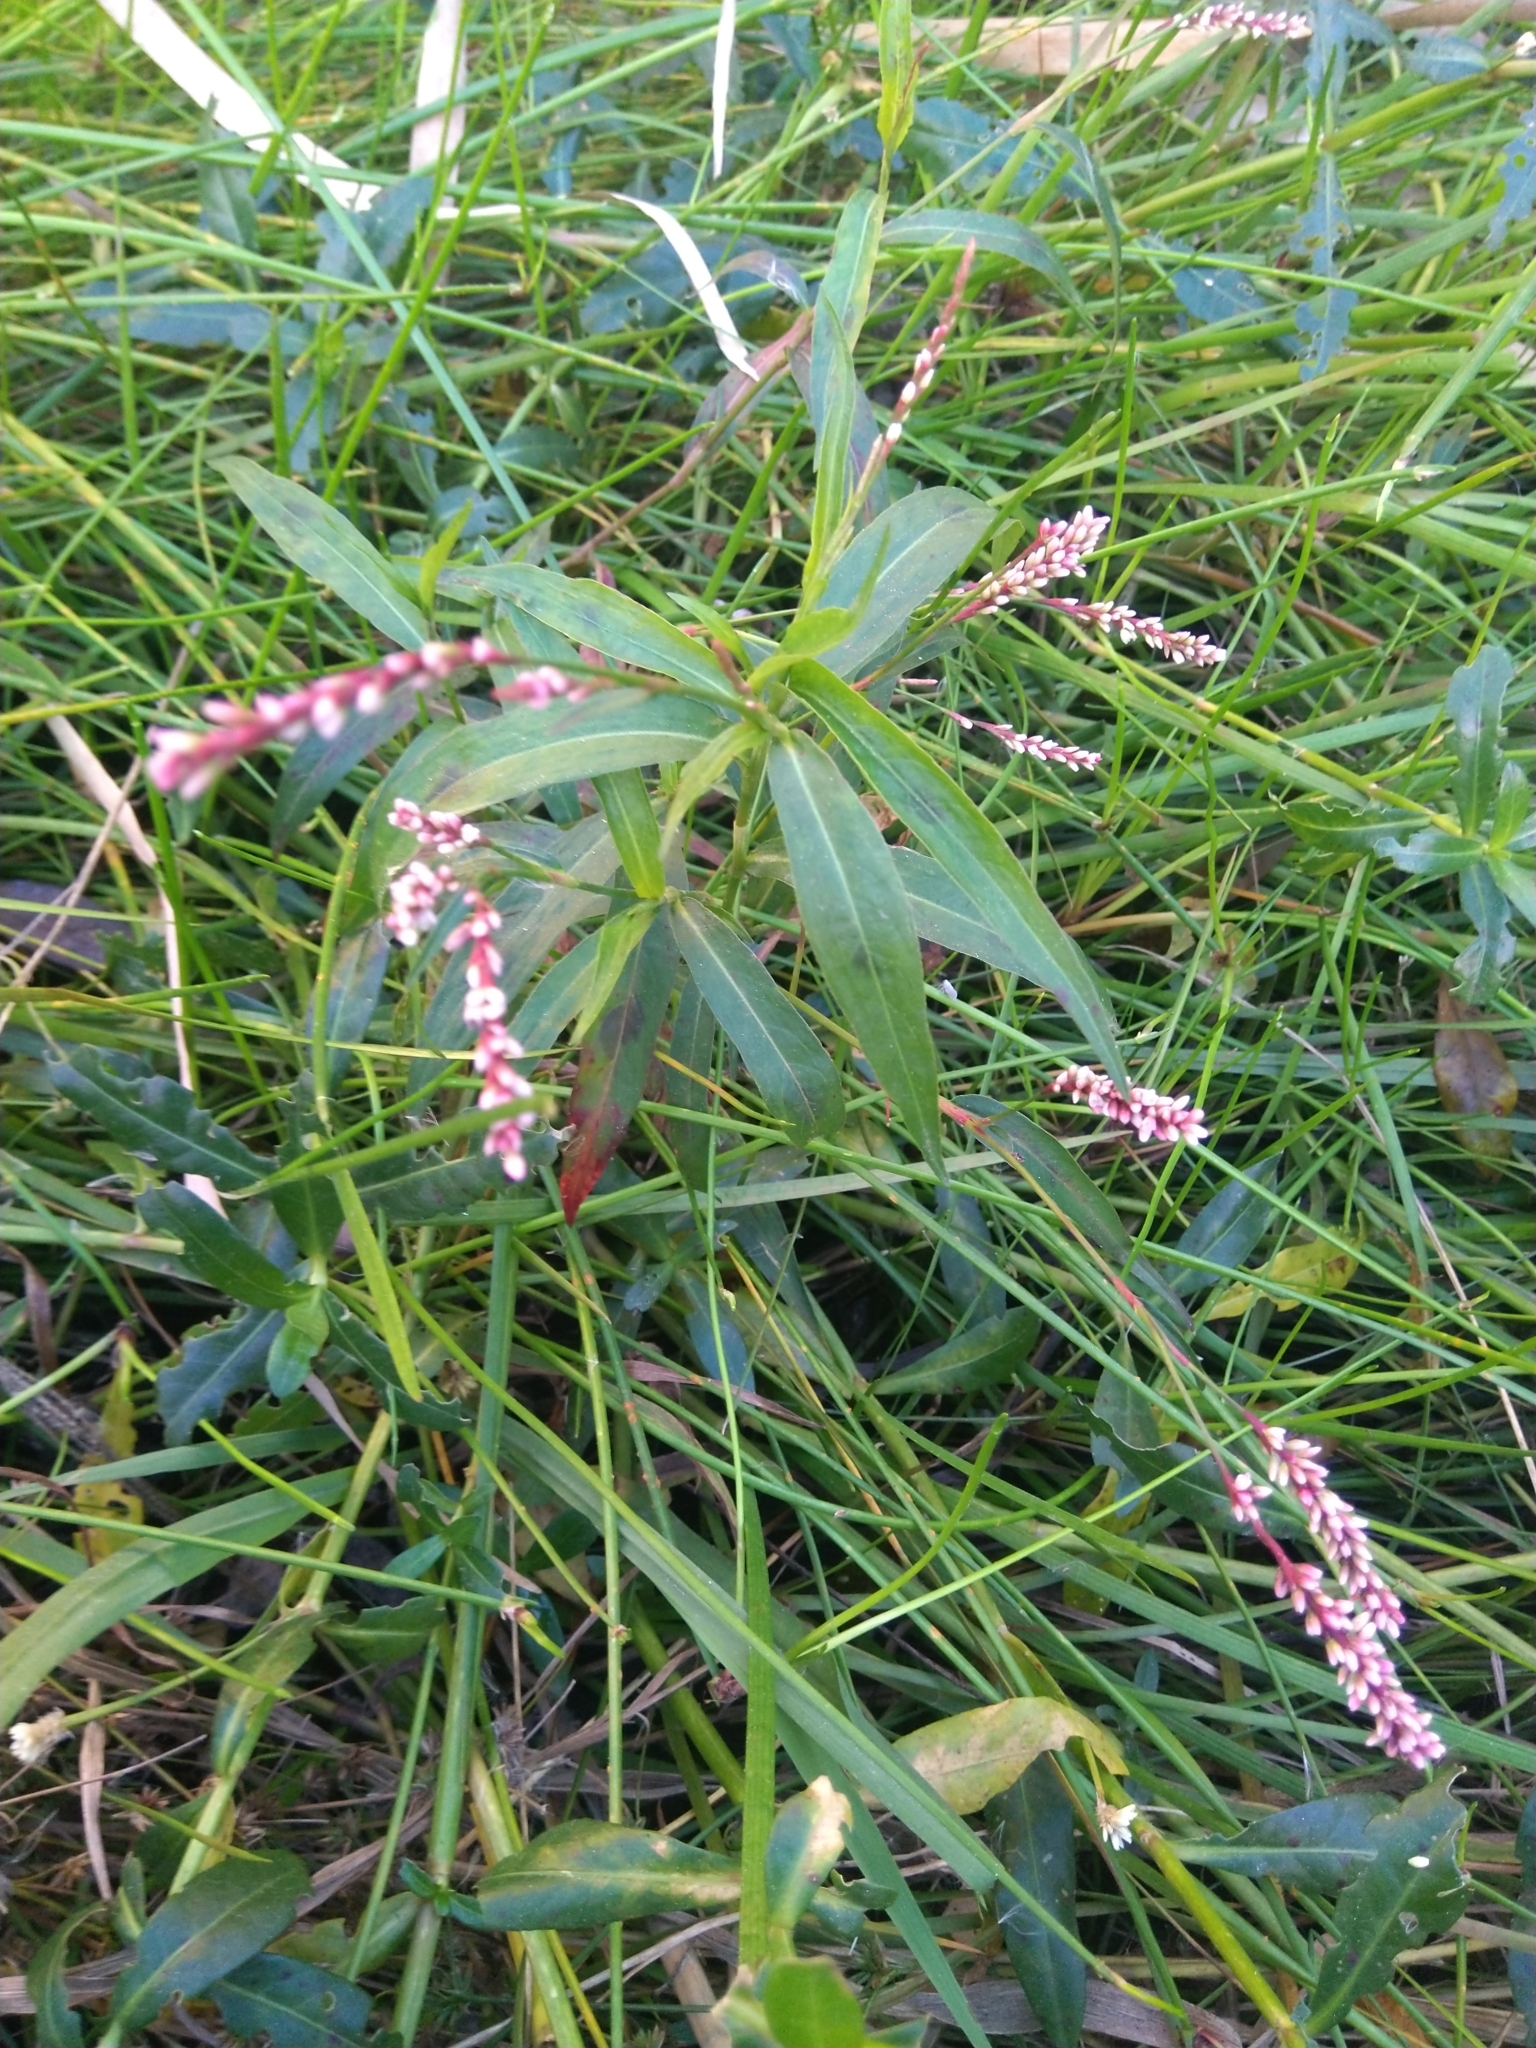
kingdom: Plantae
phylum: Tracheophyta
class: Magnoliopsida
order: Caryophyllales
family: Polygonaceae
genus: Persicaria
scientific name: Persicaria decipiens
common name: Willow-weed
